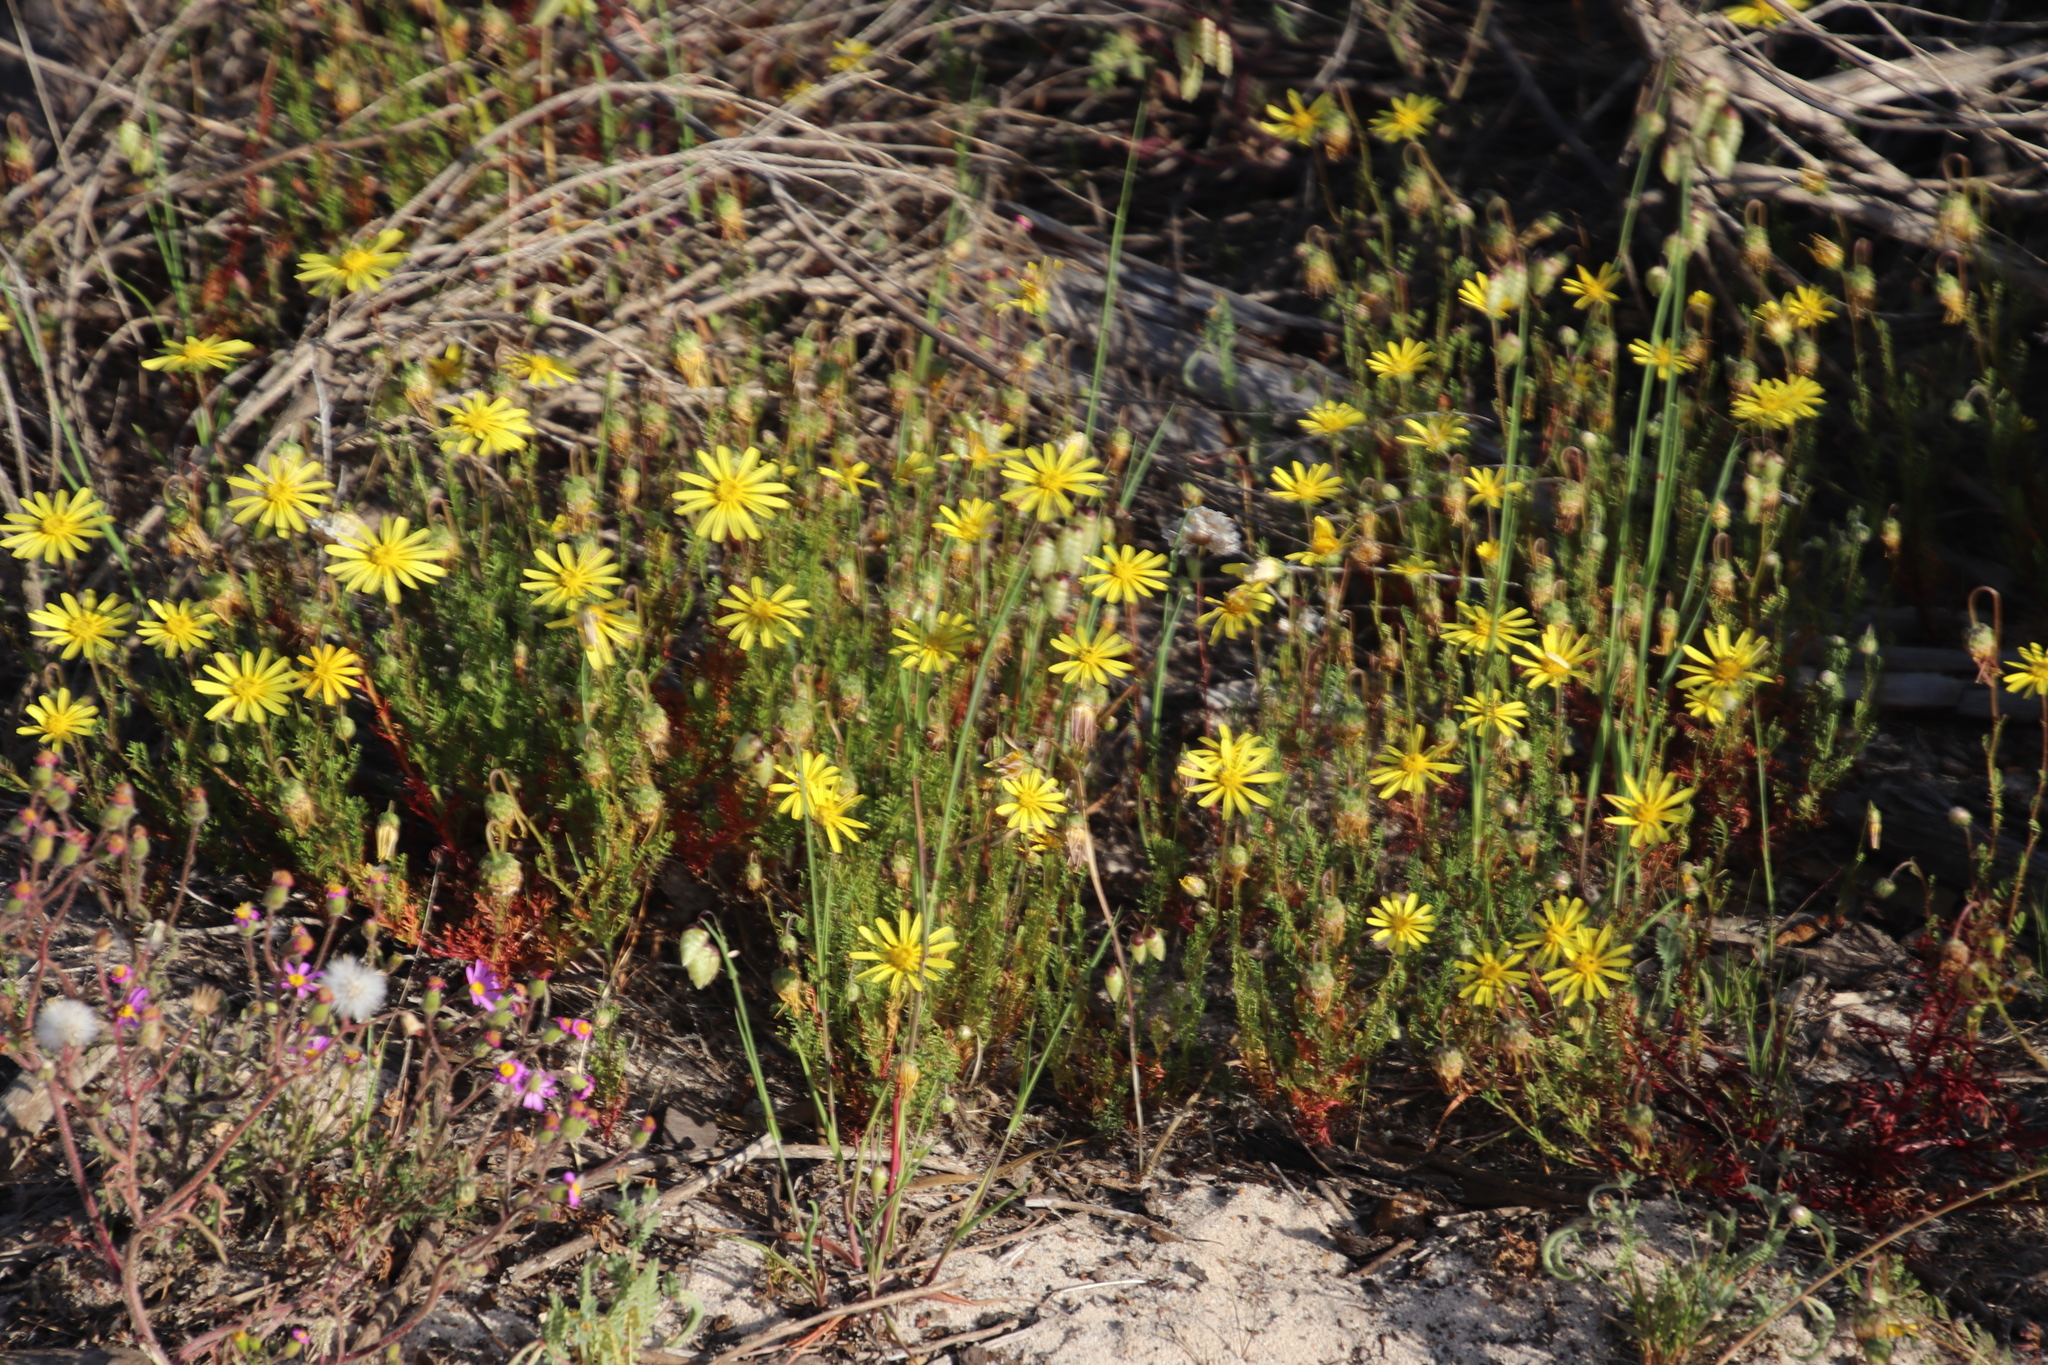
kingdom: Plantae
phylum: Tracheophyta
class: Magnoliopsida
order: Asterales
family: Asteraceae
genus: Ursinia
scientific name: Ursinia anthemoides
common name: Ursinia
